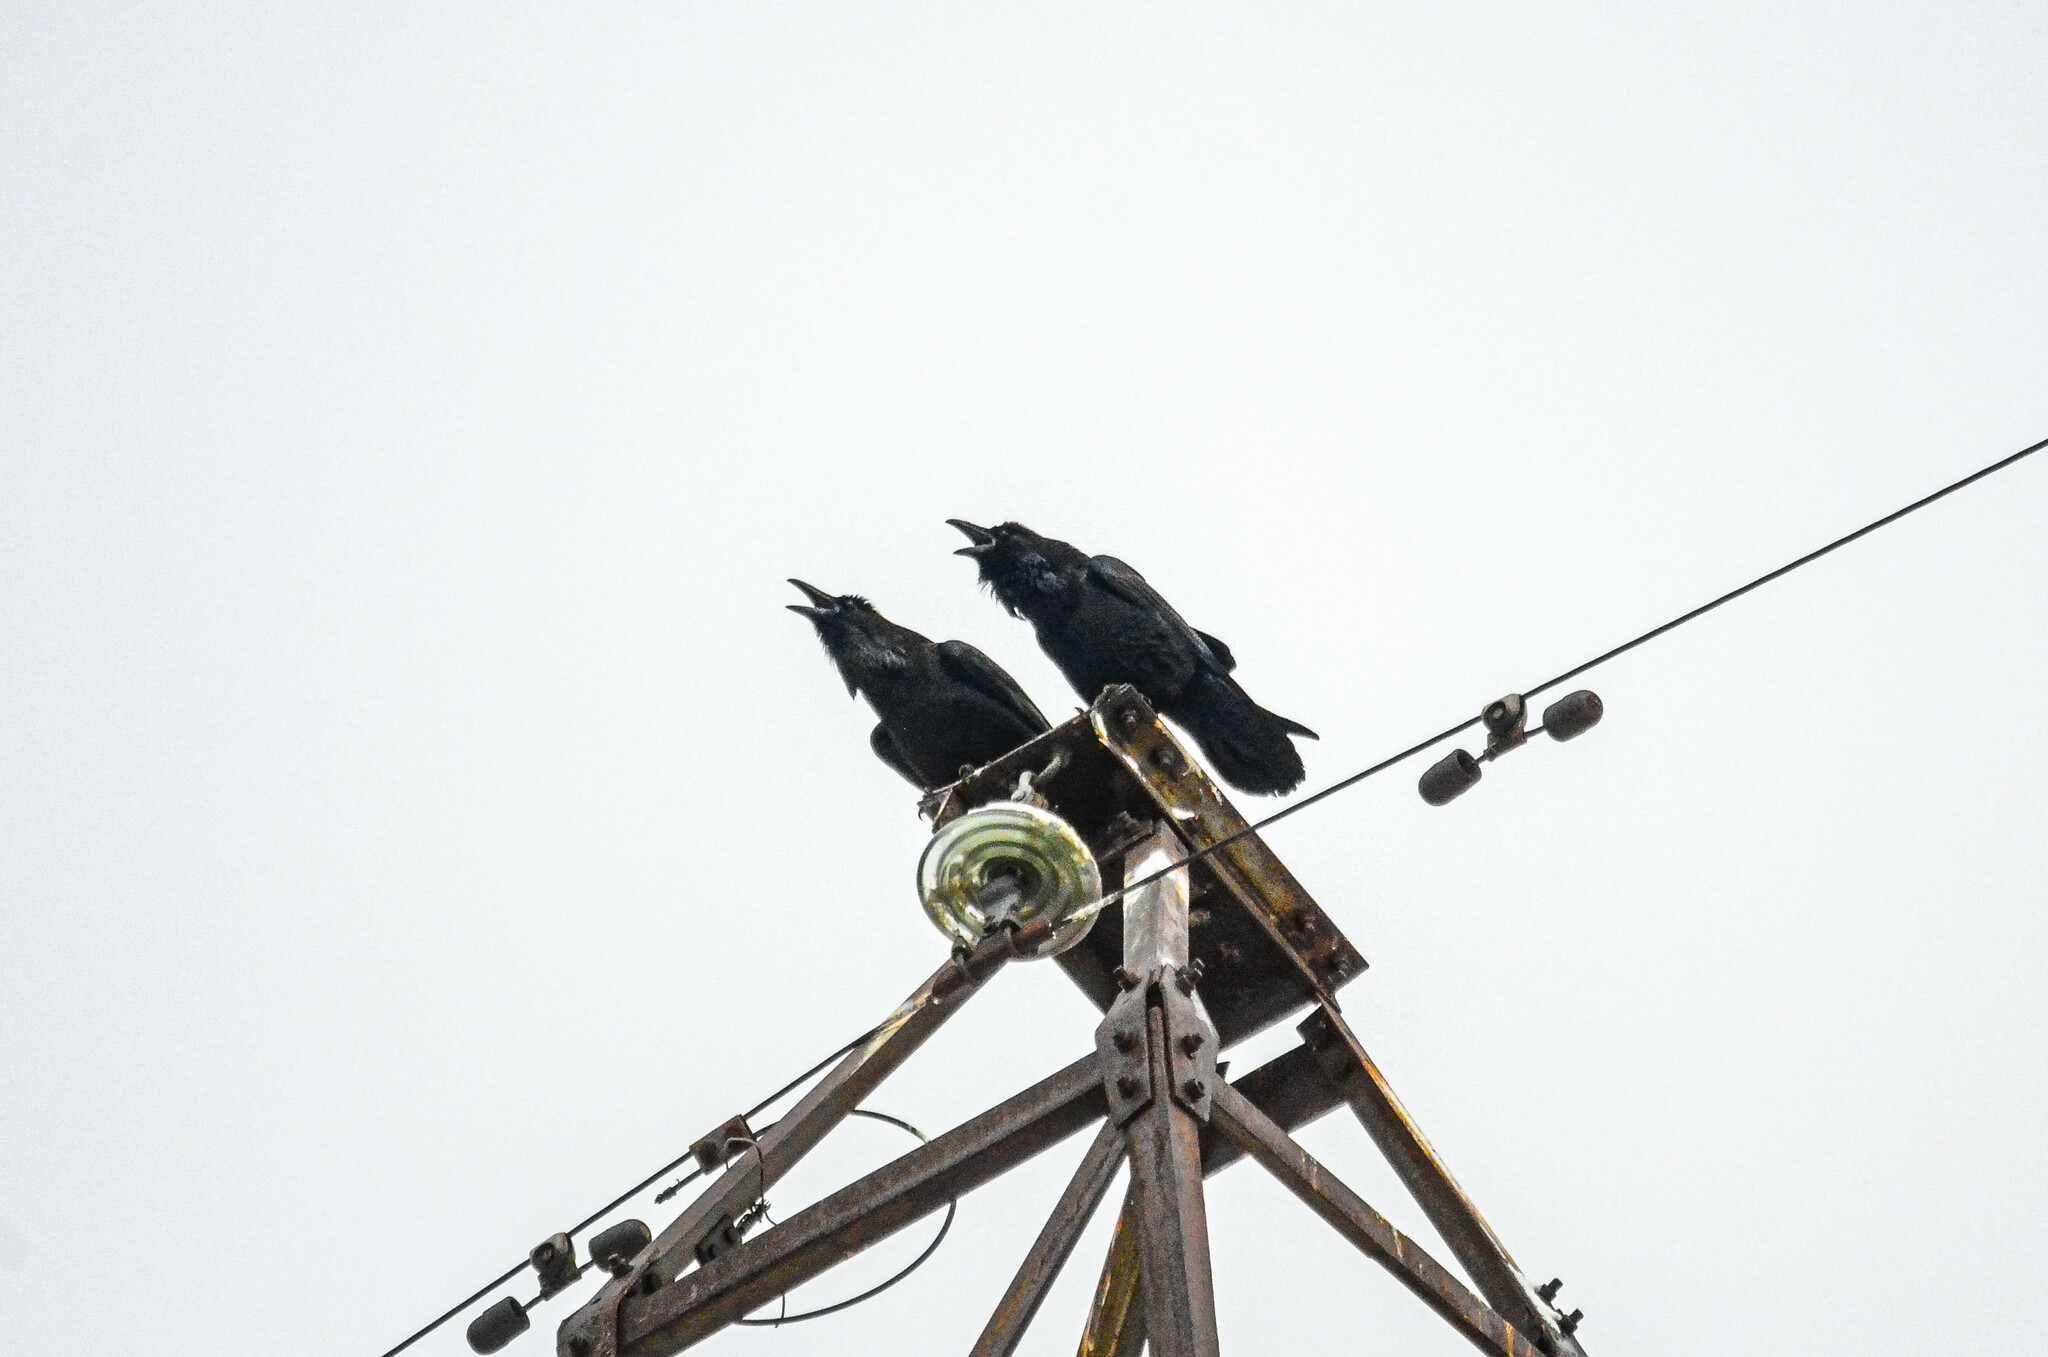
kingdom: Animalia
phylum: Chordata
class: Aves
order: Passeriformes
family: Corvidae
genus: Corvus
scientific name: Corvus corax
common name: Common raven
